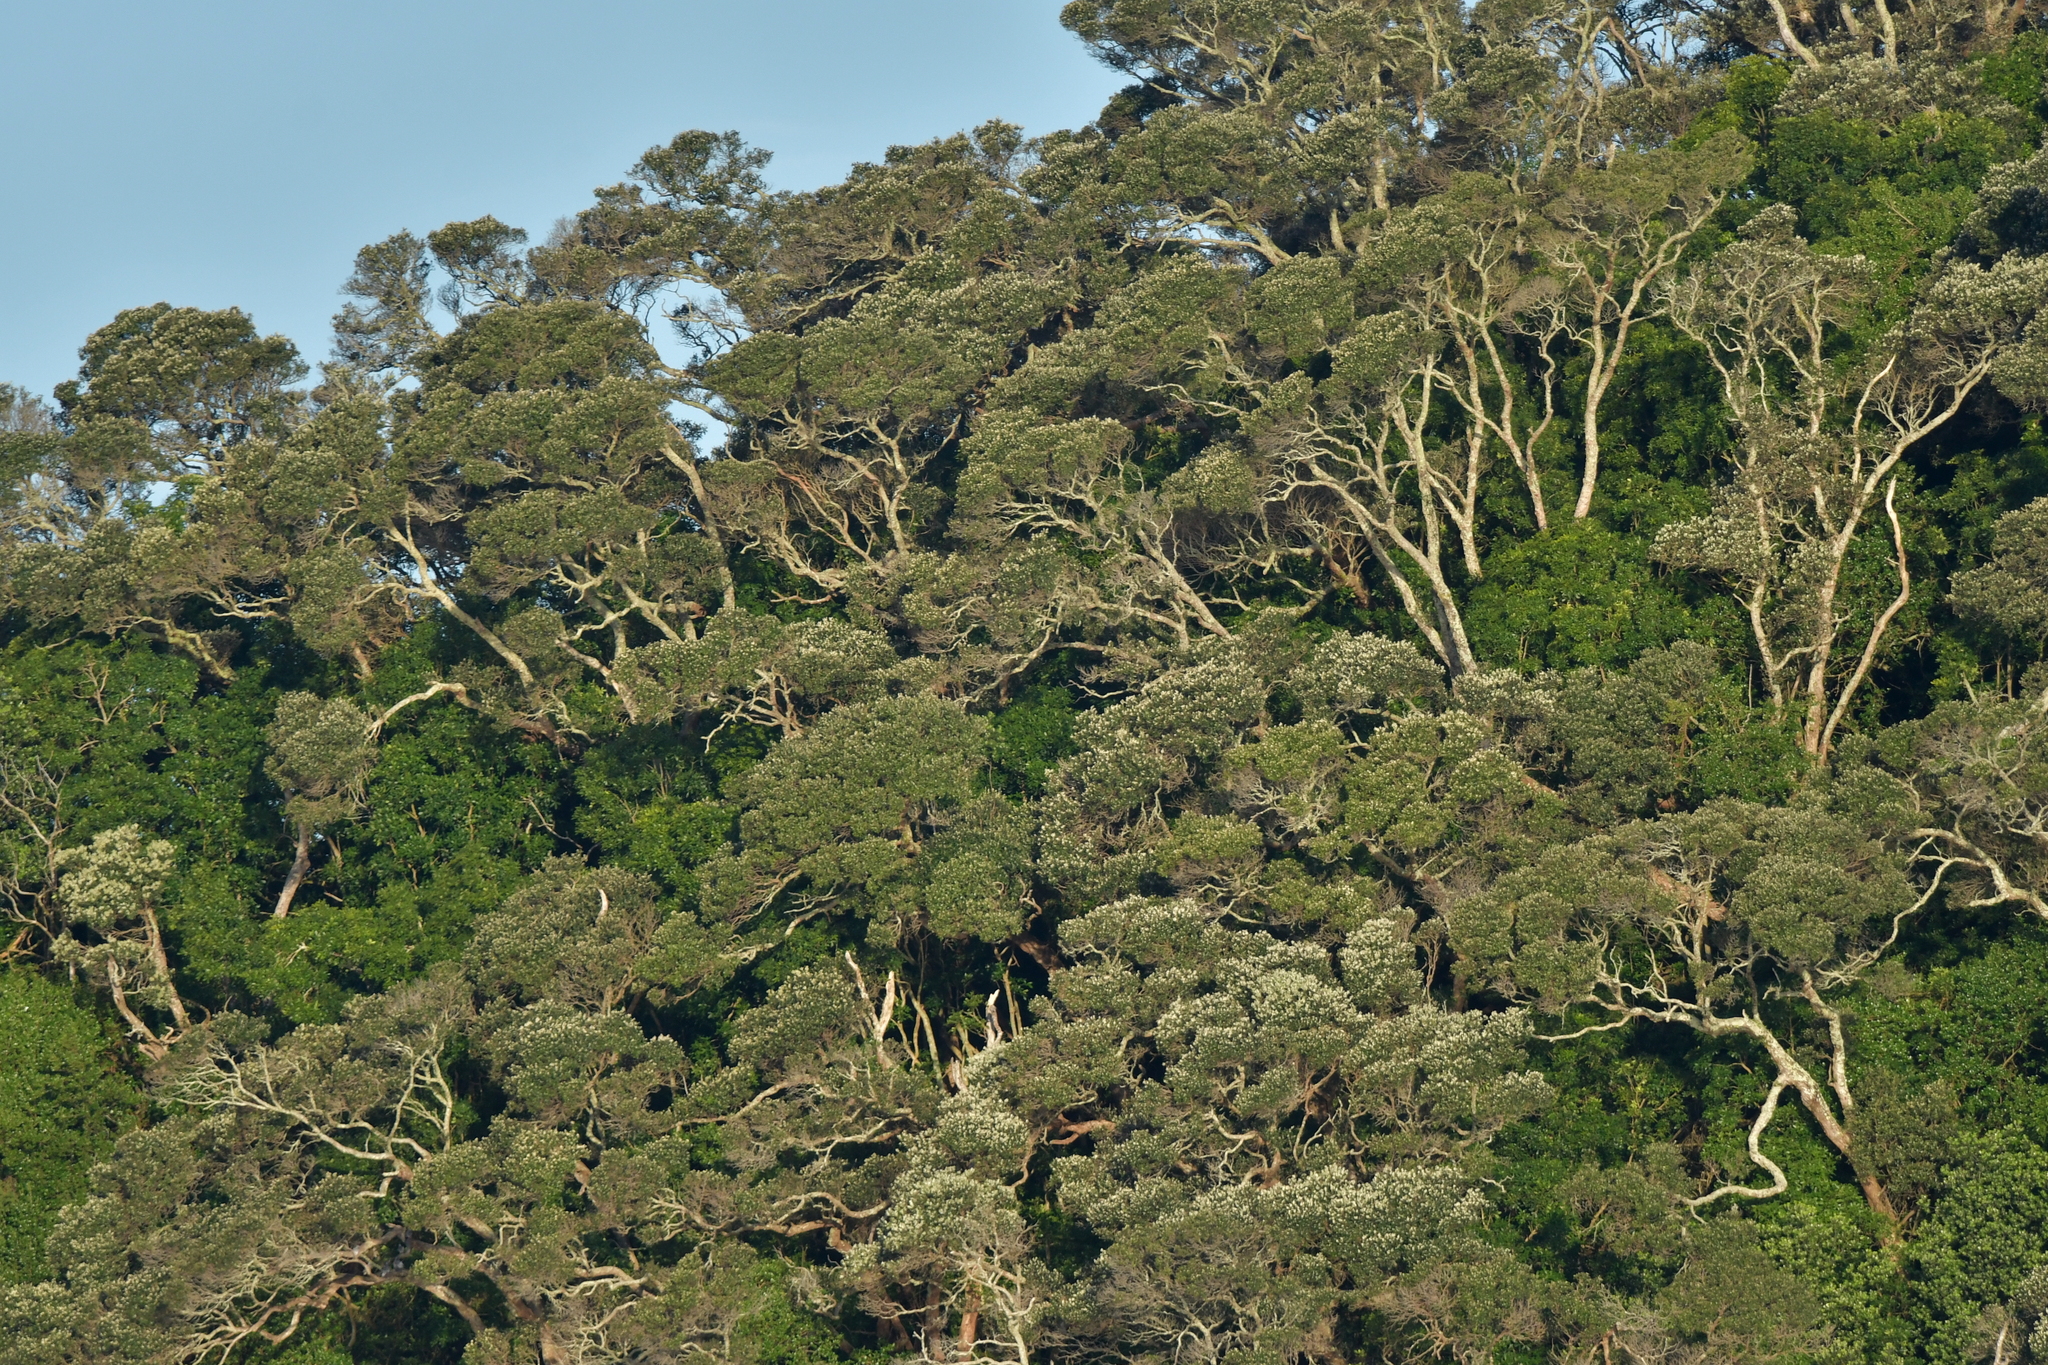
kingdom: Plantae
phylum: Tracheophyta
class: Magnoliopsida
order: Myrtales
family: Myrtaceae
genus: Metrosideros
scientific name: Metrosideros excelsa
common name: New zealand christmastree
